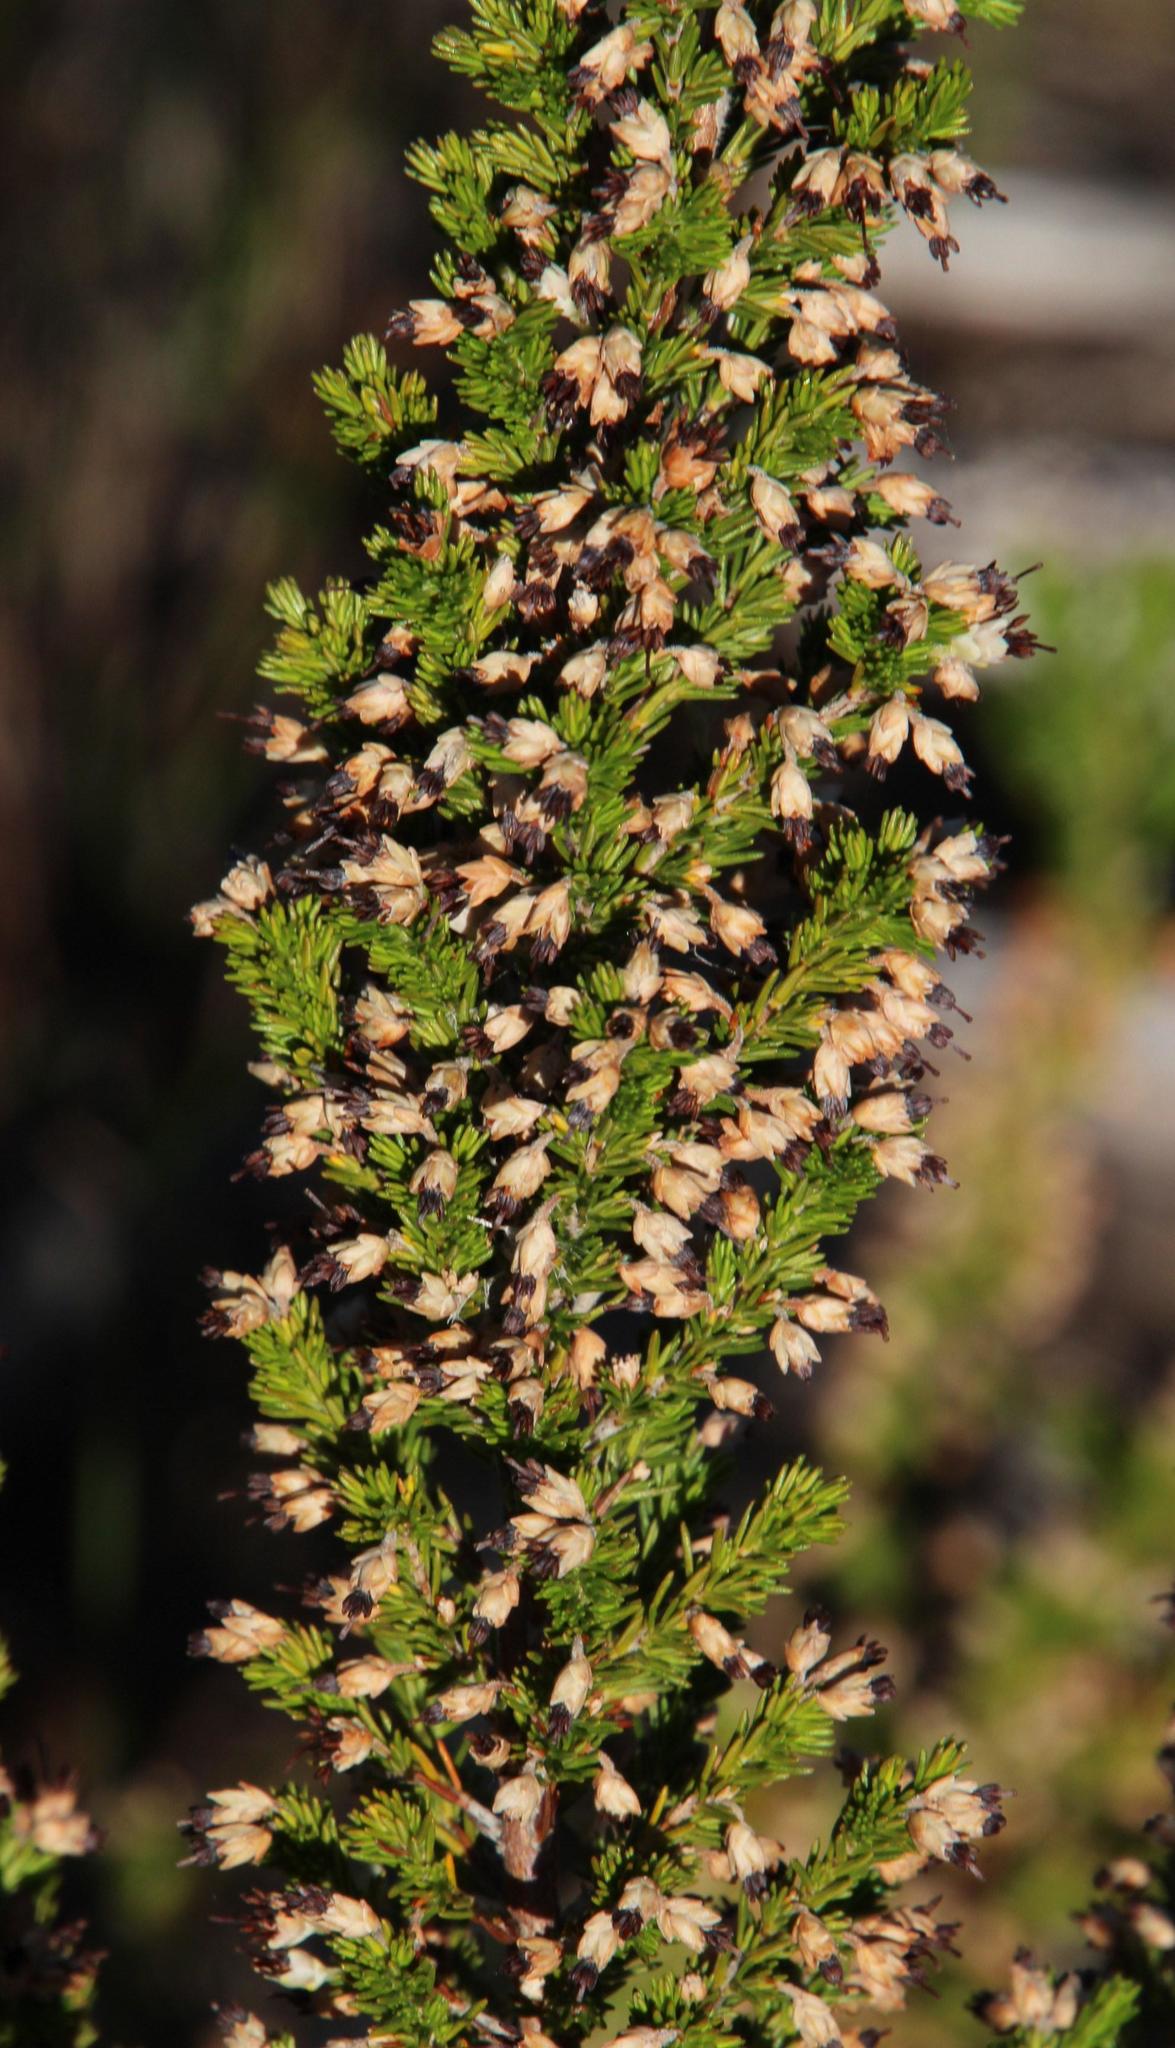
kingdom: Plantae
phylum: Tracheophyta
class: Magnoliopsida
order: Ericales
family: Ericaceae
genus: Erica
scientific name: Erica imbricata
